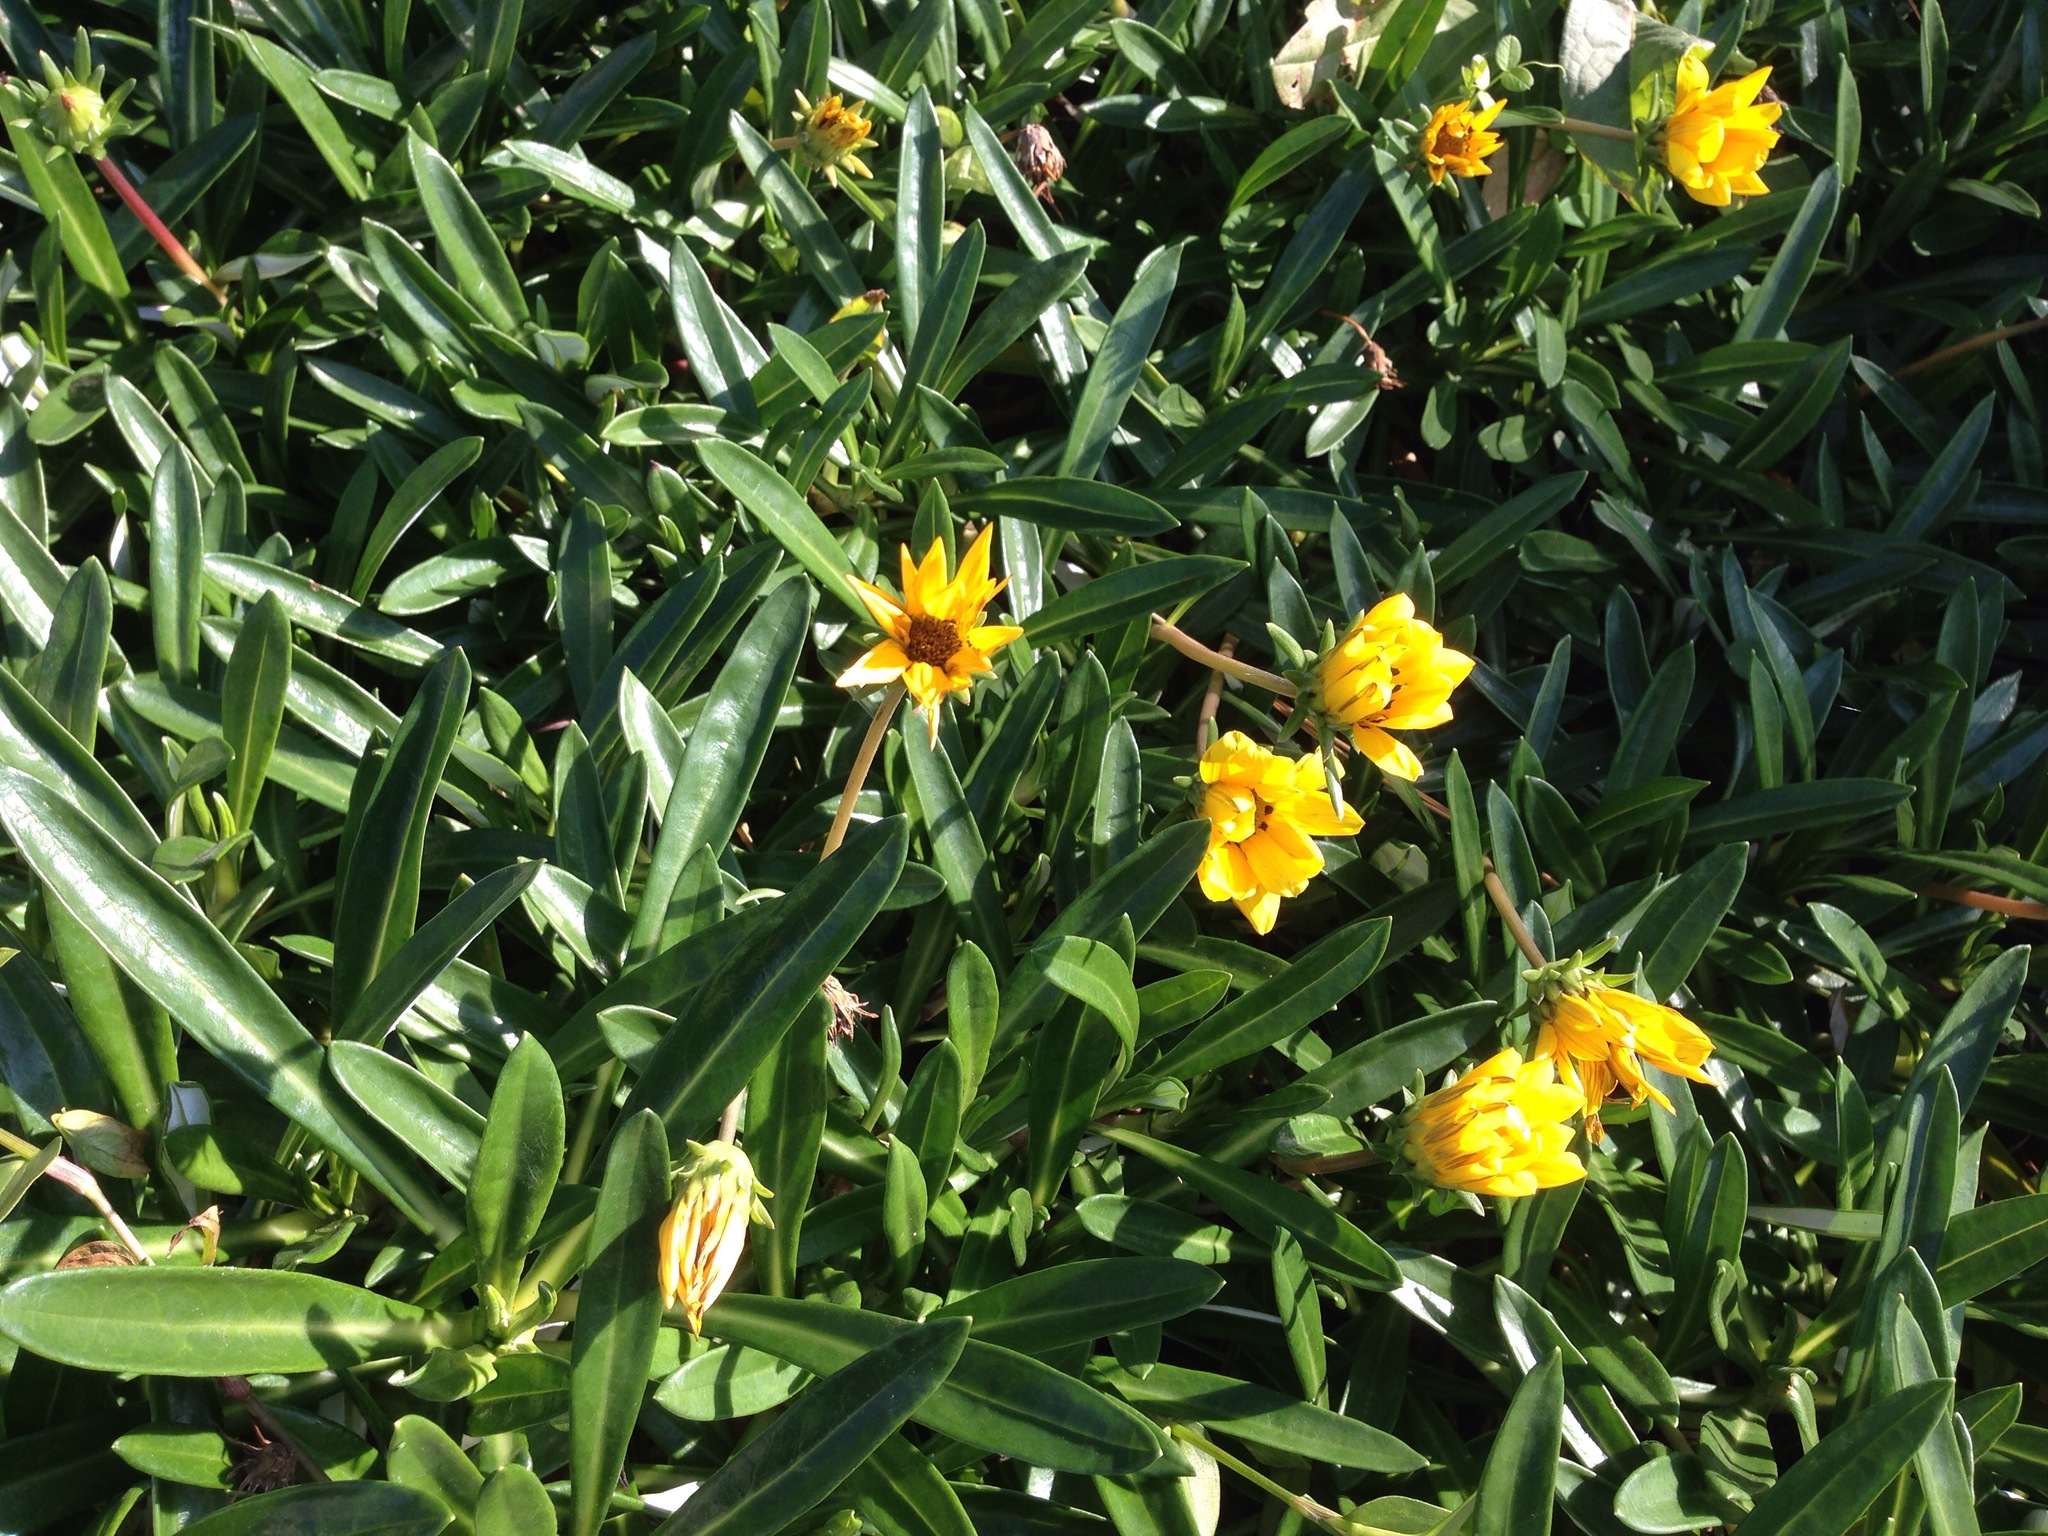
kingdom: Plantae
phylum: Tracheophyta
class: Magnoliopsida
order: Asterales
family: Asteraceae
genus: Gazania
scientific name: Gazania rigens
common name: Treasureflower
